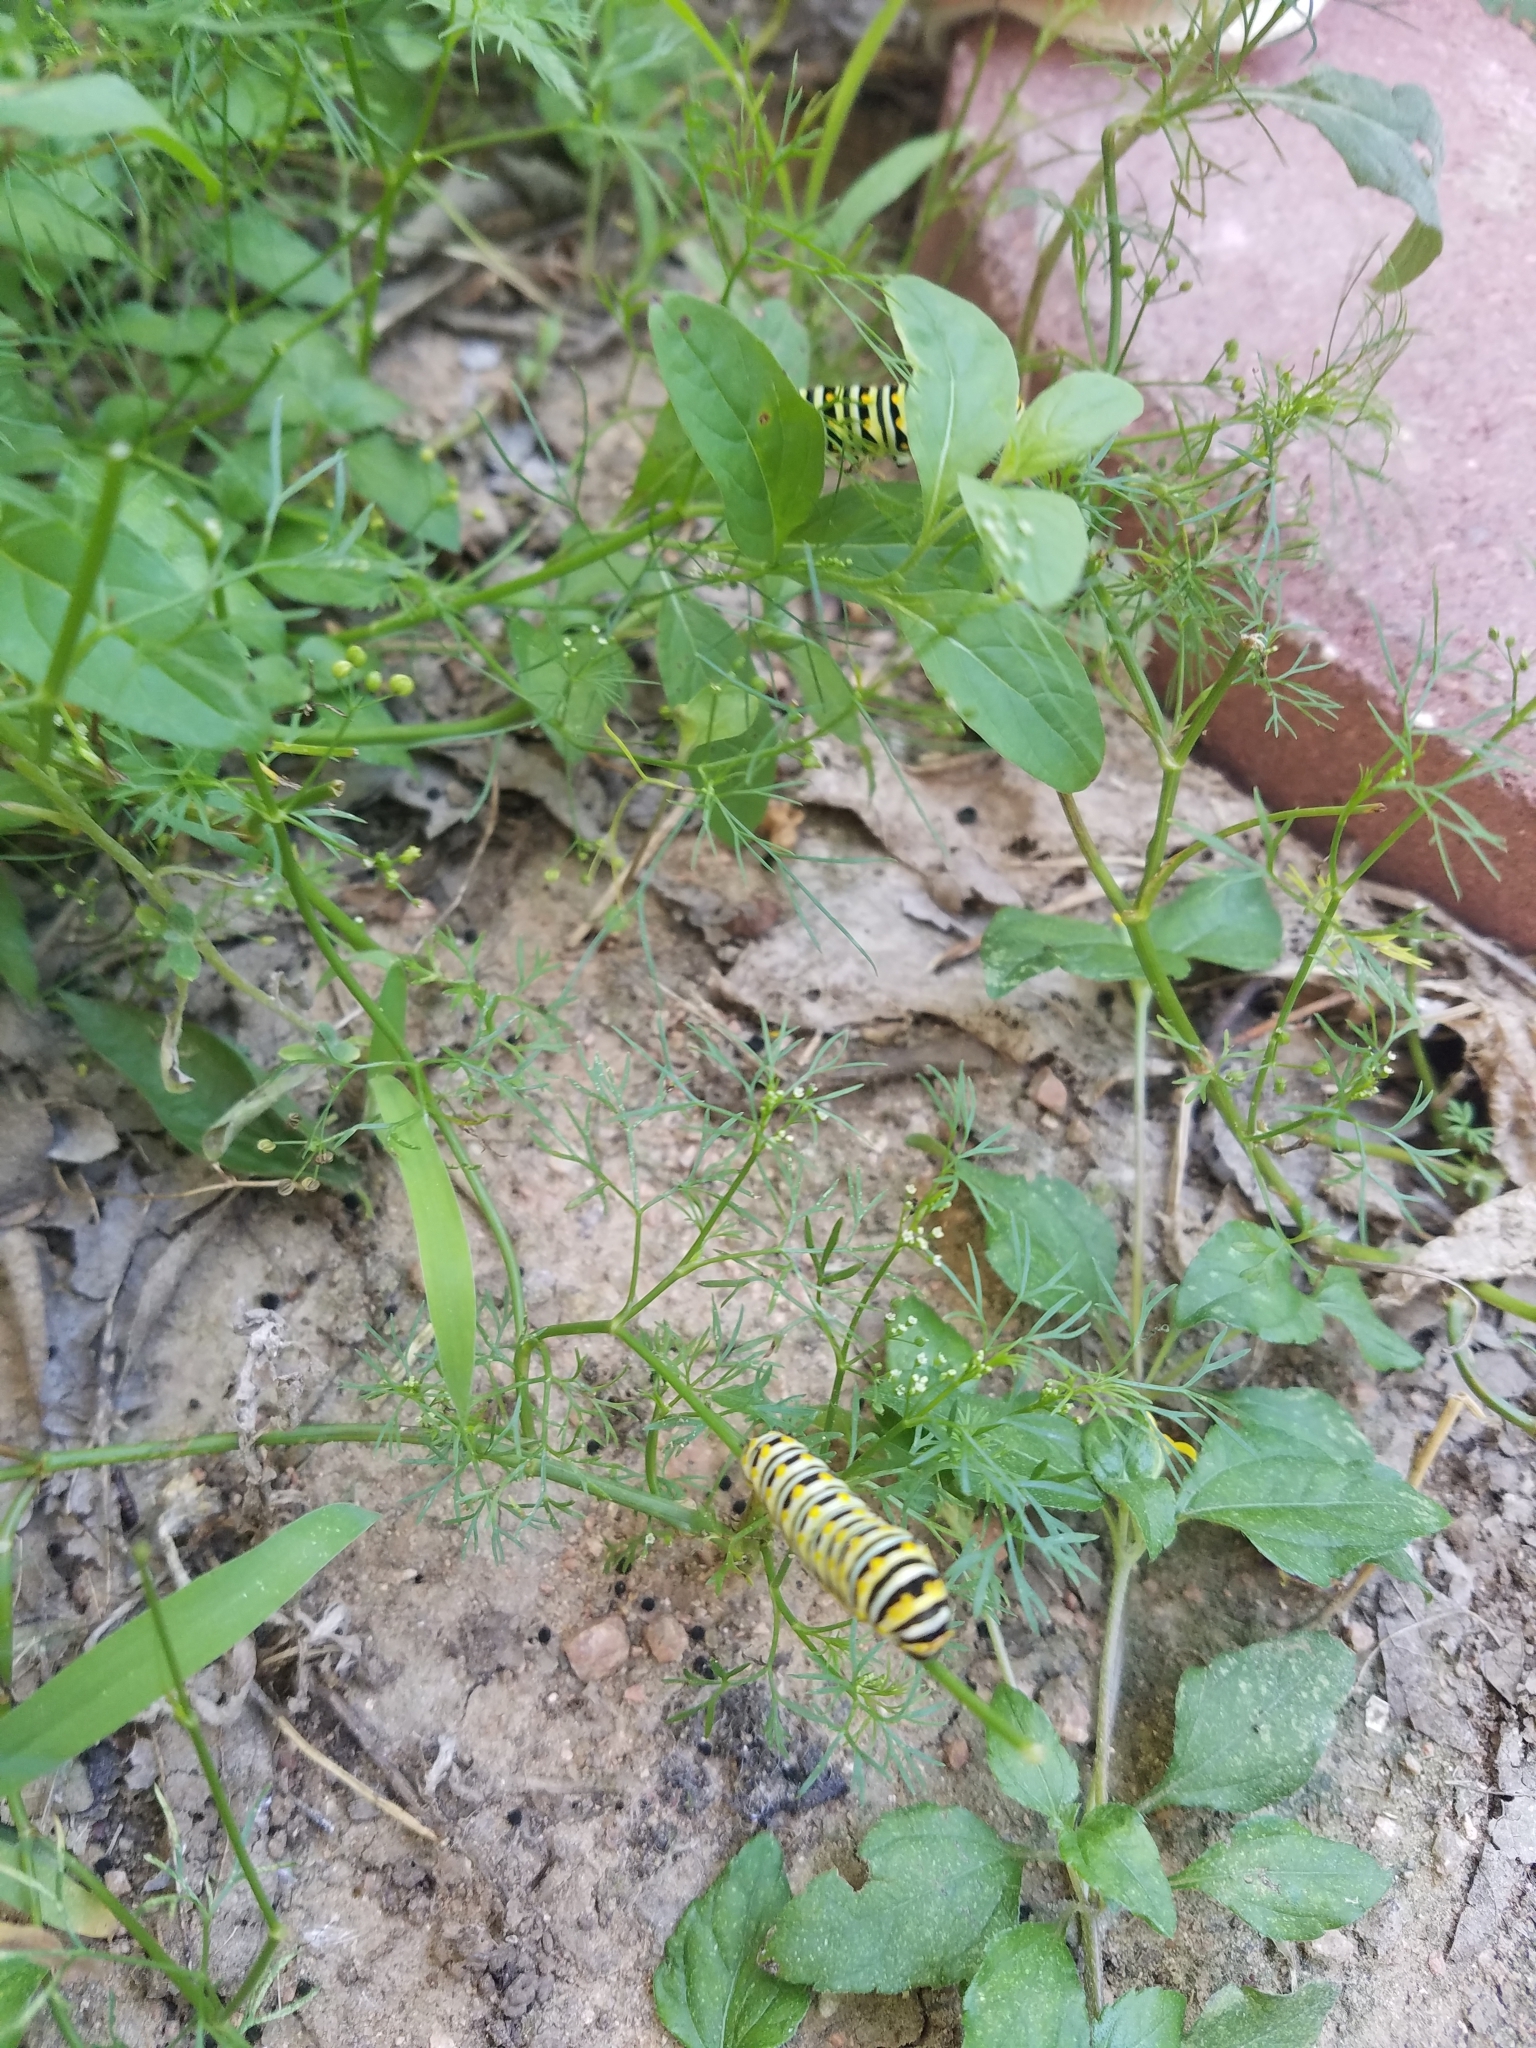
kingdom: Animalia
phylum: Arthropoda
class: Insecta
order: Lepidoptera
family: Papilionidae
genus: Papilio
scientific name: Papilio polyxenes
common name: Black swallowtail
